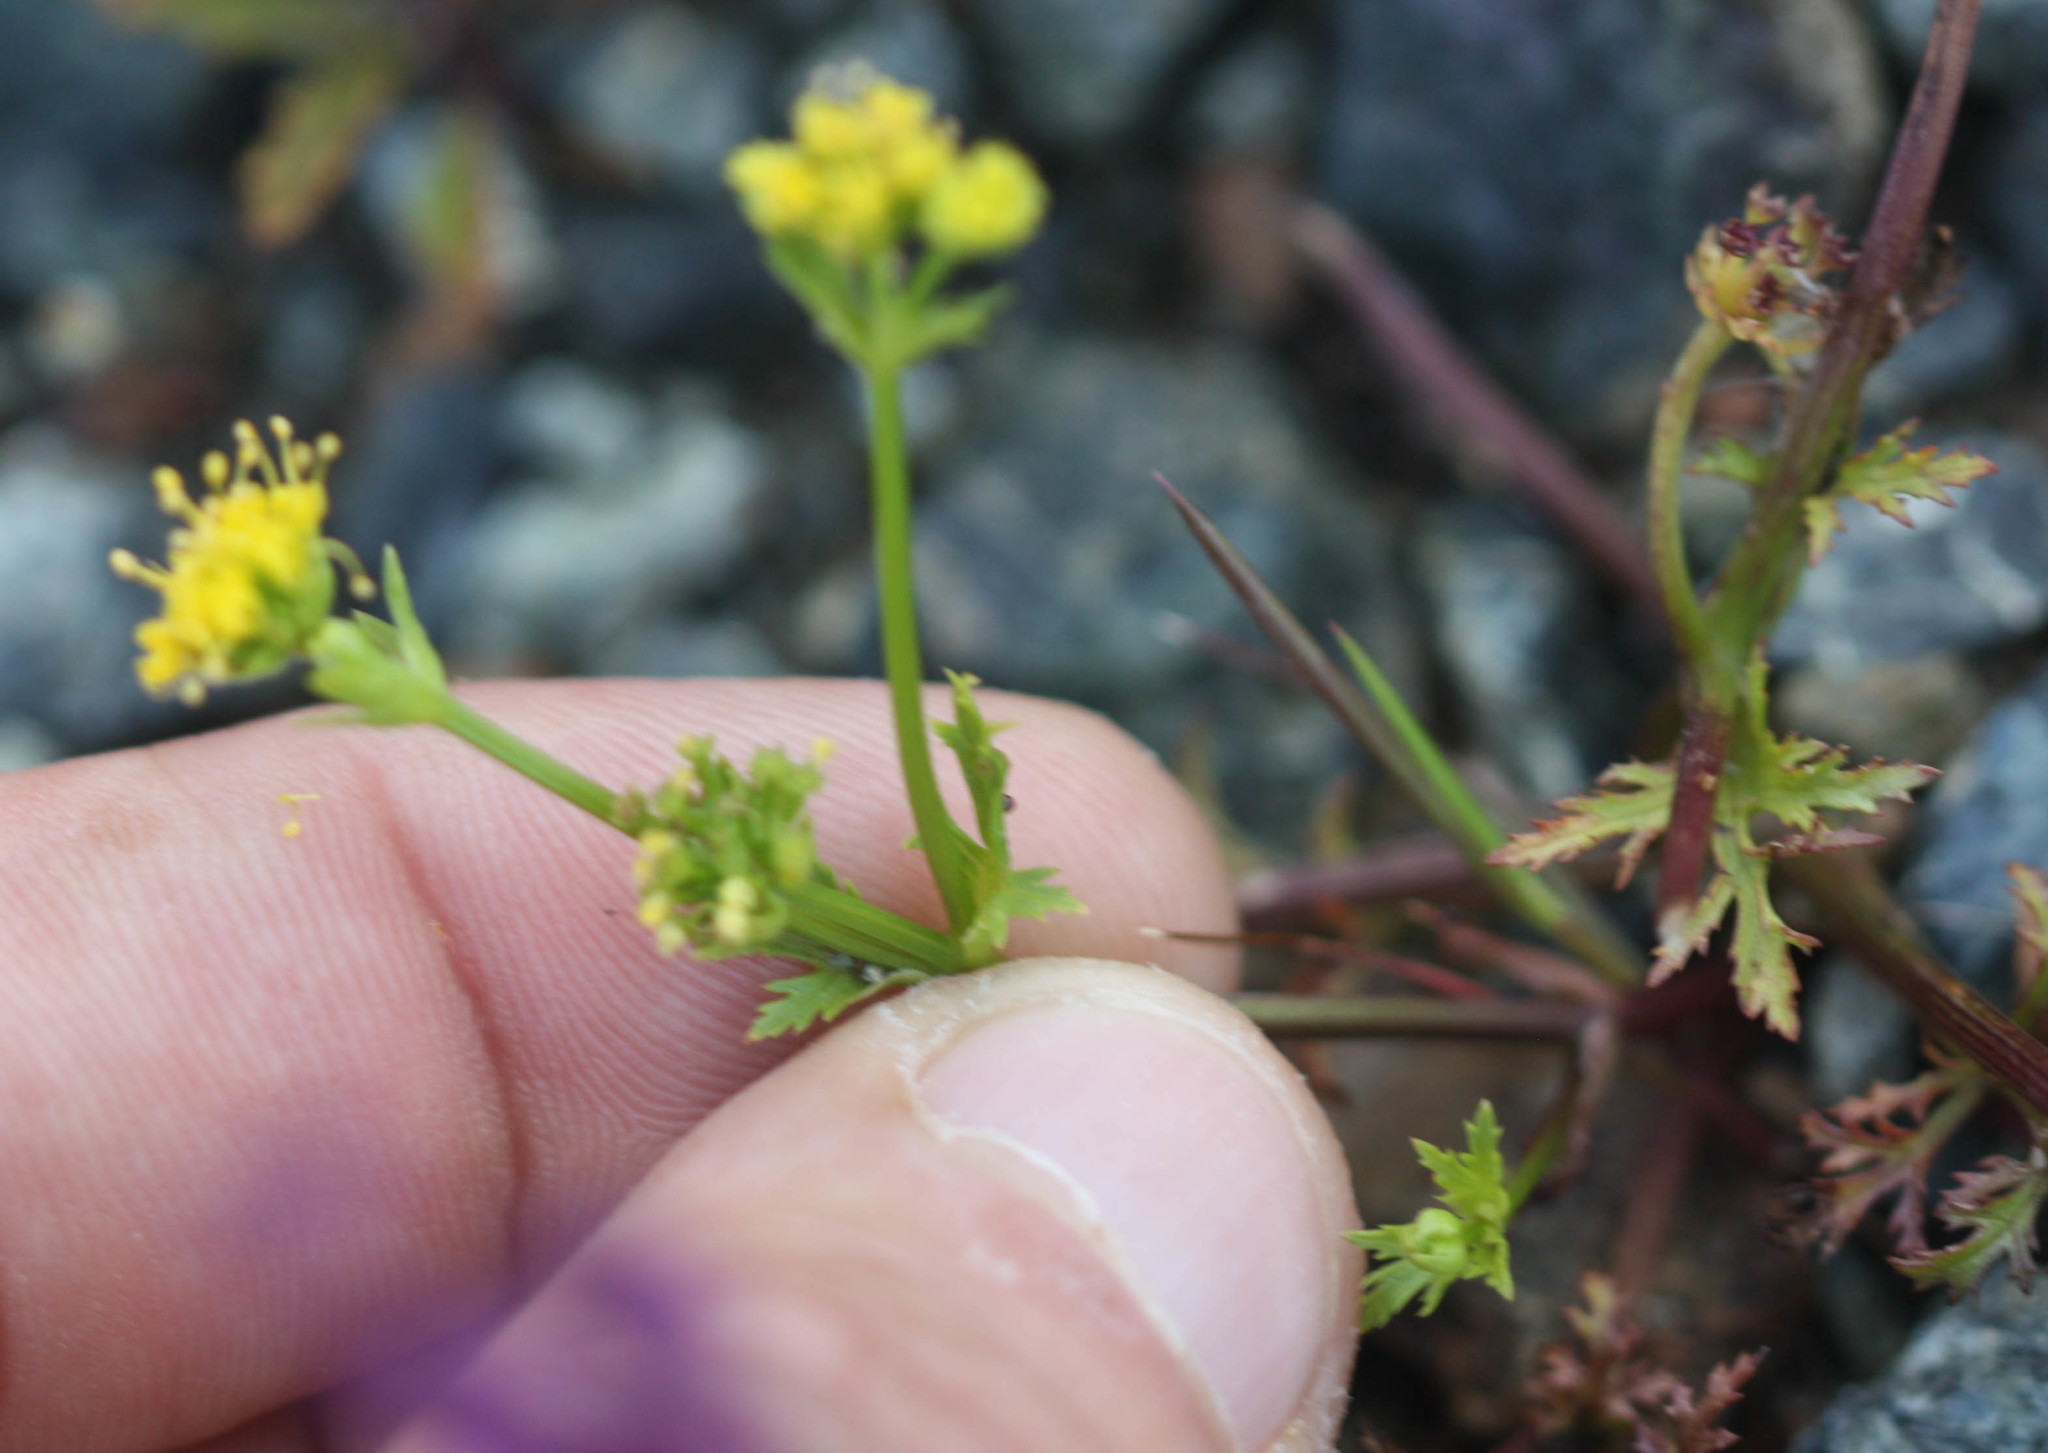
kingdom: Plantae
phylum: Tracheophyta
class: Magnoliopsida
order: Apiales
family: Apiaceae
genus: Sanicula
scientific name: Sanicula tuberosa
